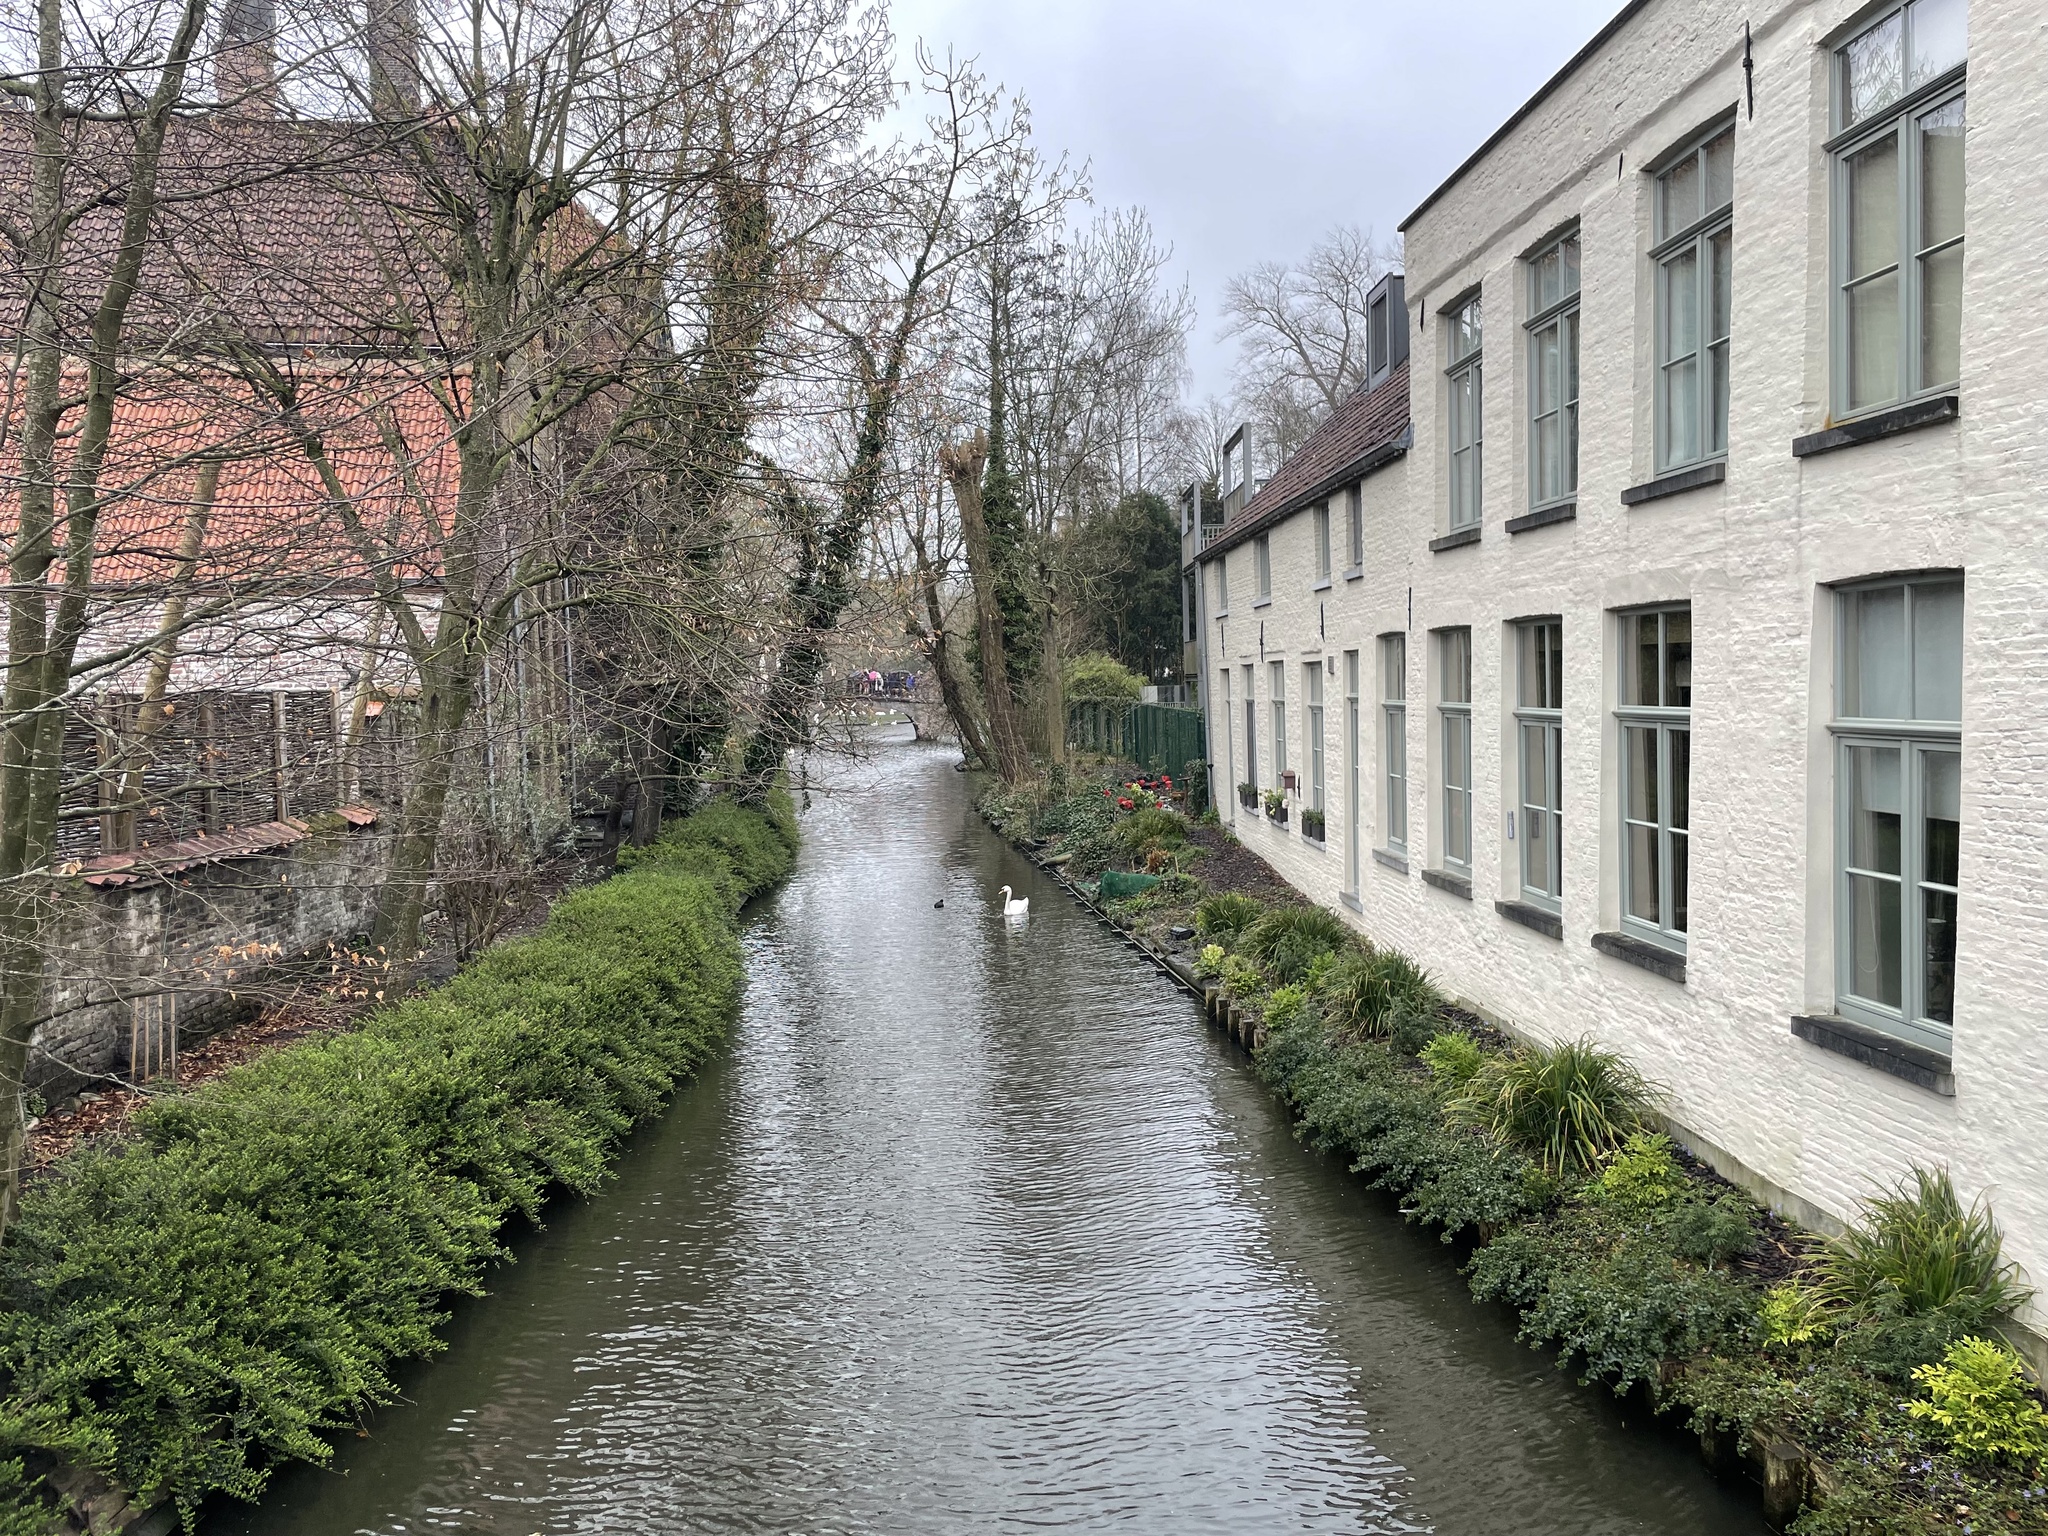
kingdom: Animalia
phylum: Chordata
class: Aves
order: Anseriformes
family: Anatidae
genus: Cygnus
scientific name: Cygnus olor
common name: Mute swan
